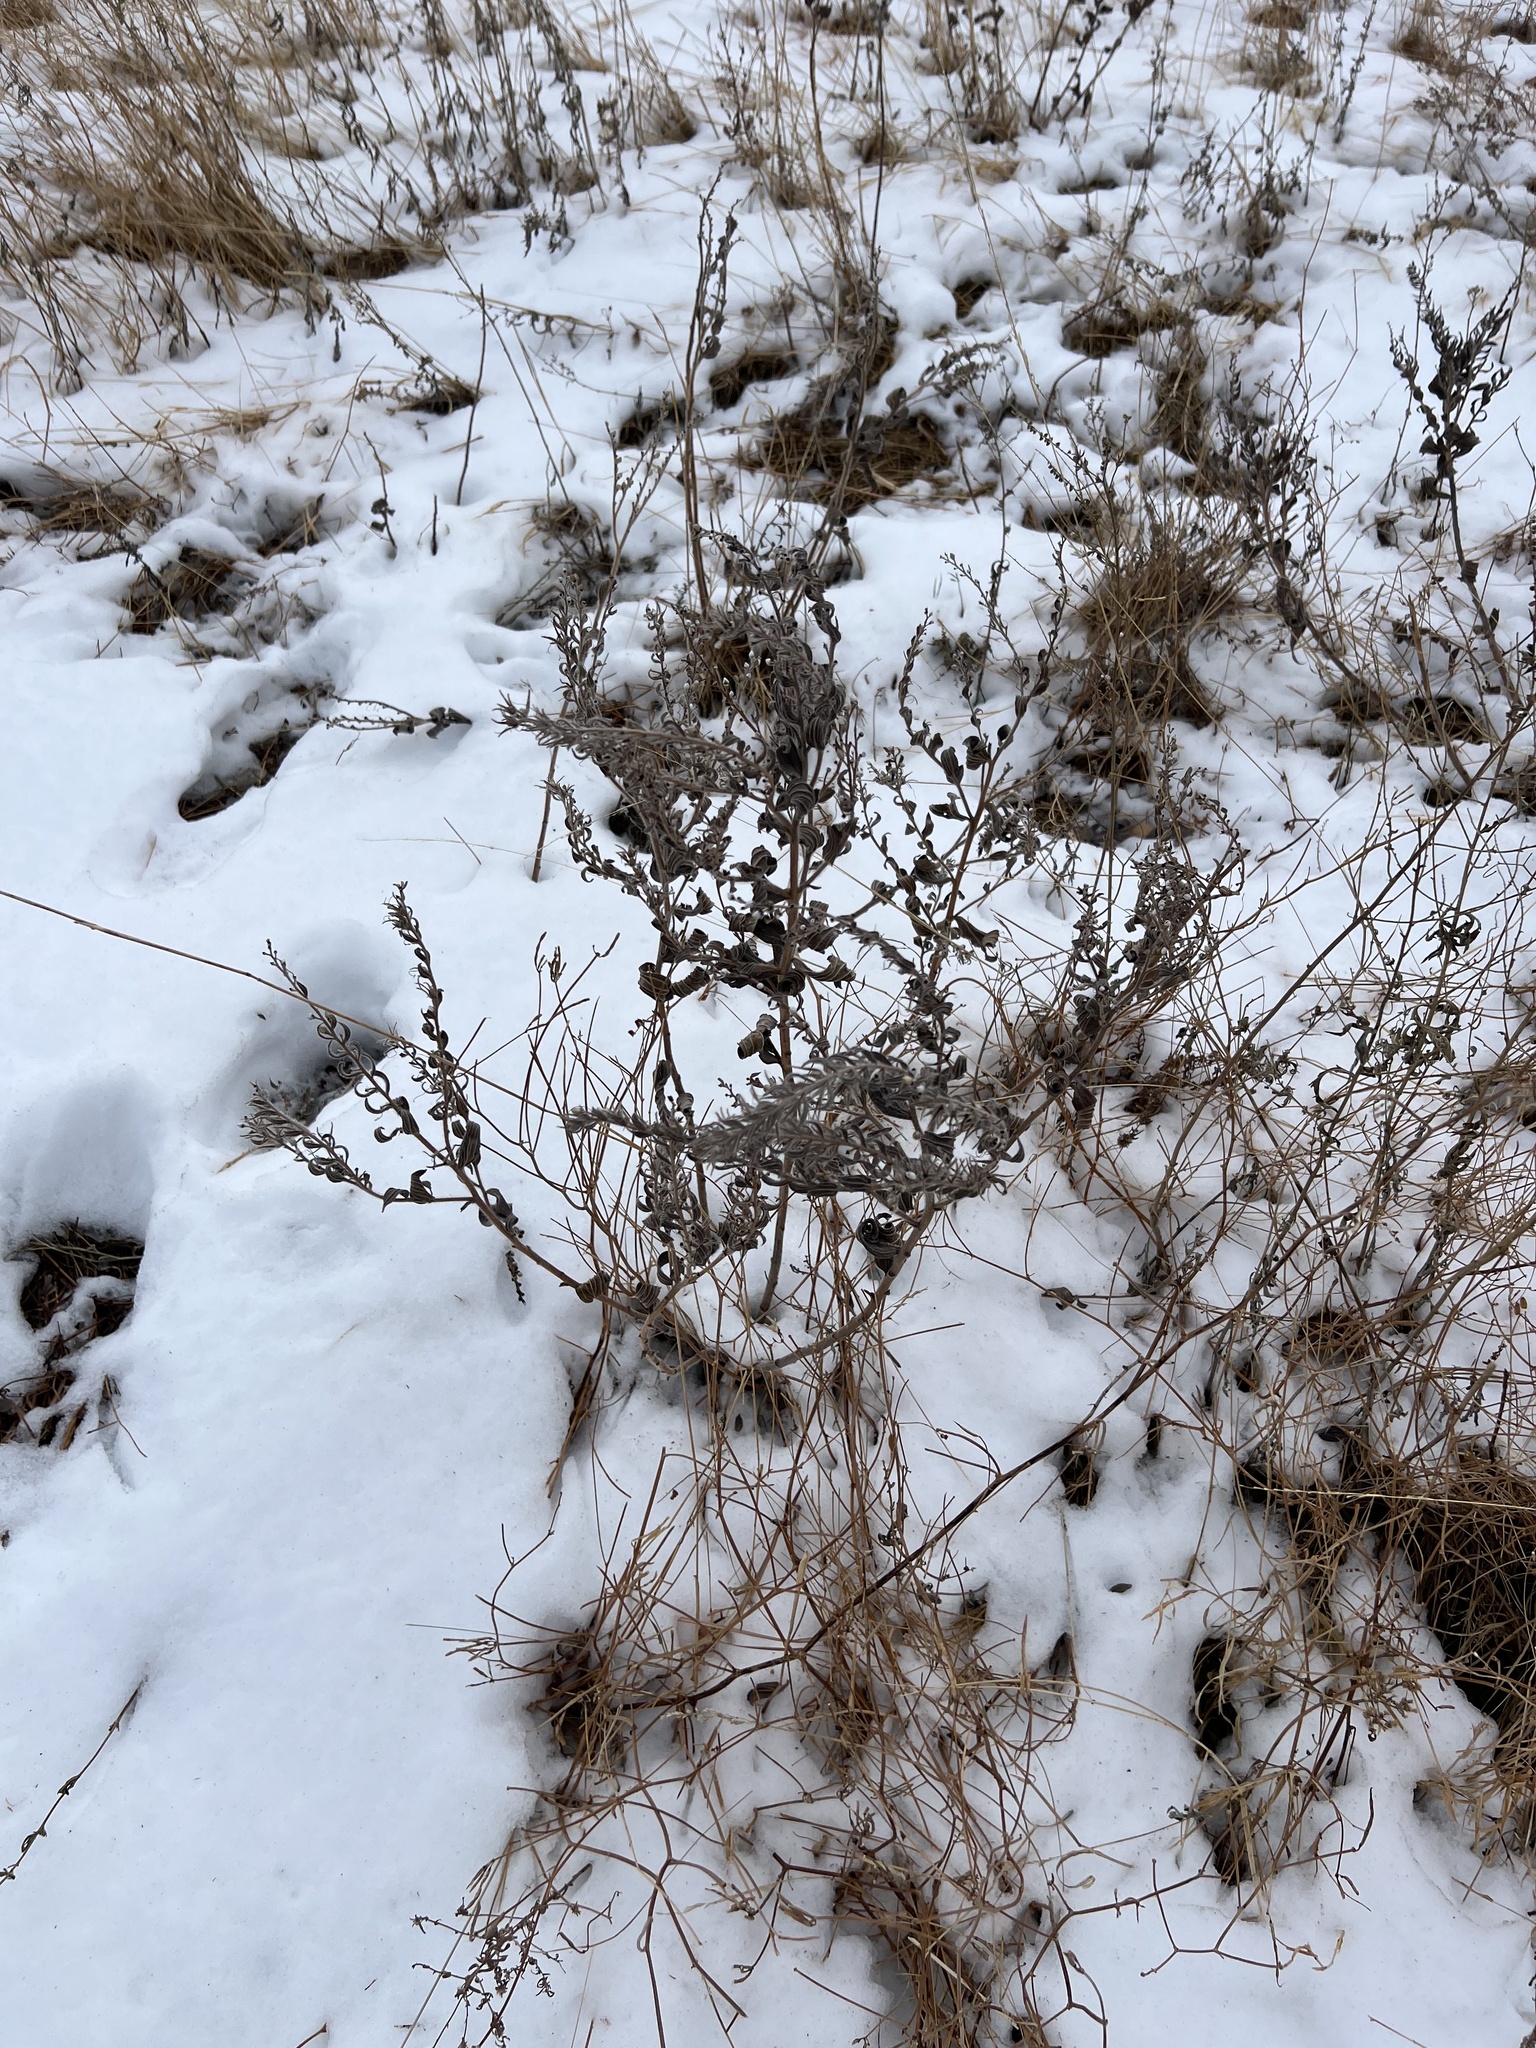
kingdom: Plantae
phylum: Tracheophyta
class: Magnoliopsida
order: Boraginales
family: Boraginaceae
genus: Lithospermum
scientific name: Lithospermum occidentale
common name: Western false gromwell
